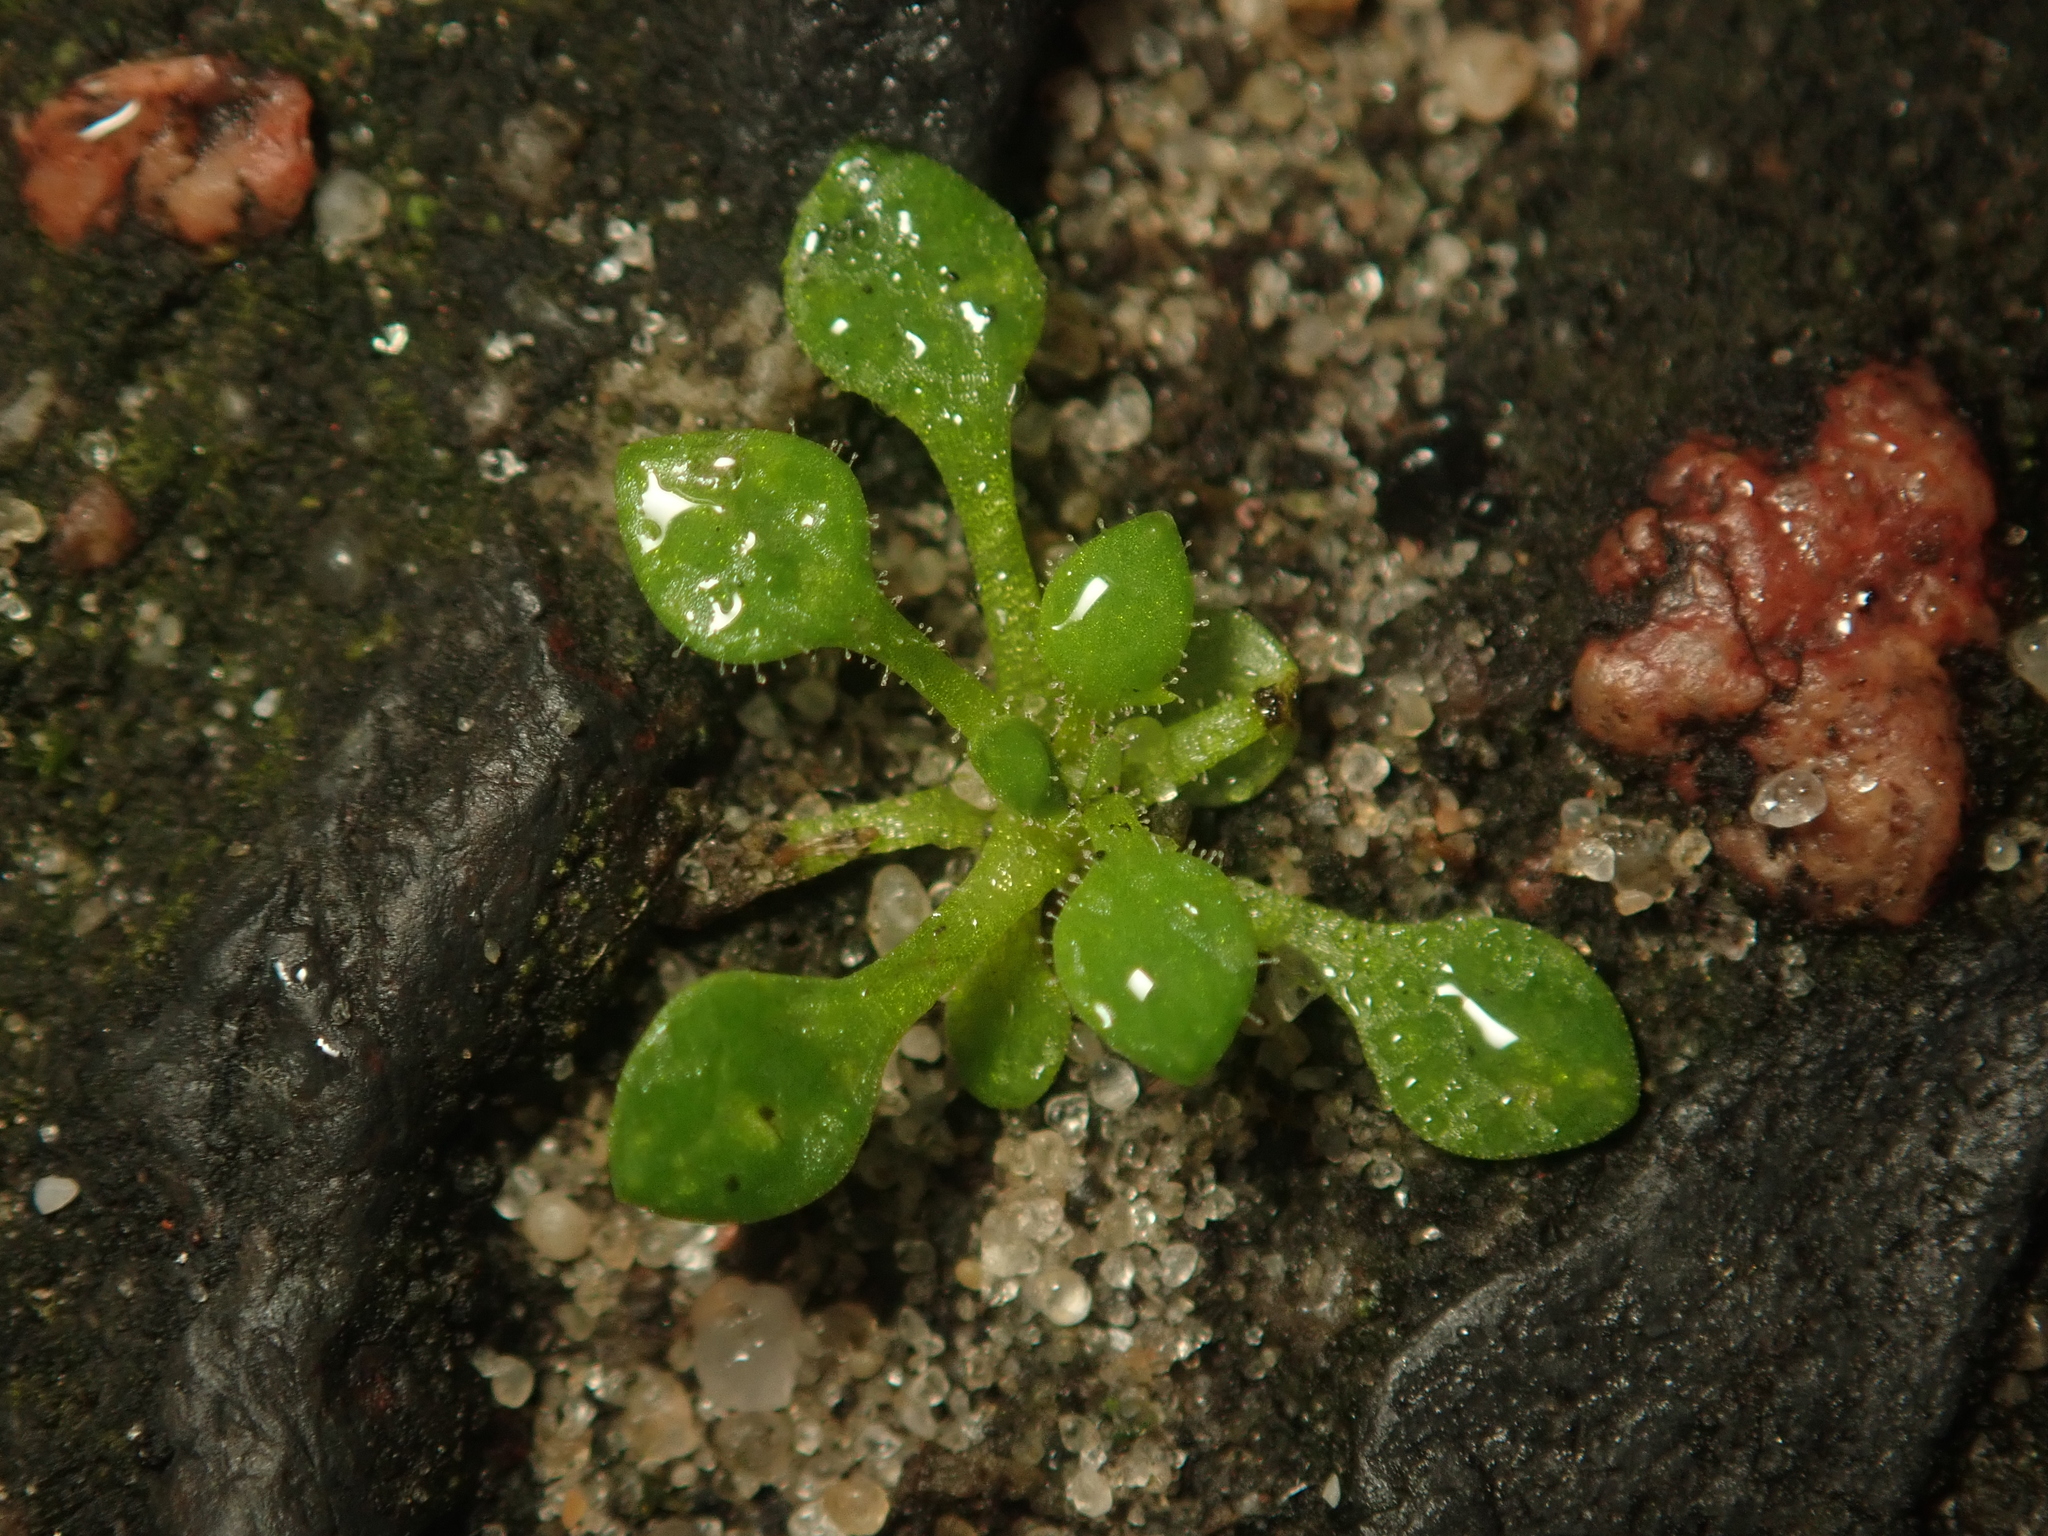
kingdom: Plantae
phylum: Tracheophyta
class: Magnoliopsida
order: Saxifragales
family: Saxifragaceae
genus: Saxifraga
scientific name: Saxifraga tridactylites
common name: Rue-leaved saxifrage
